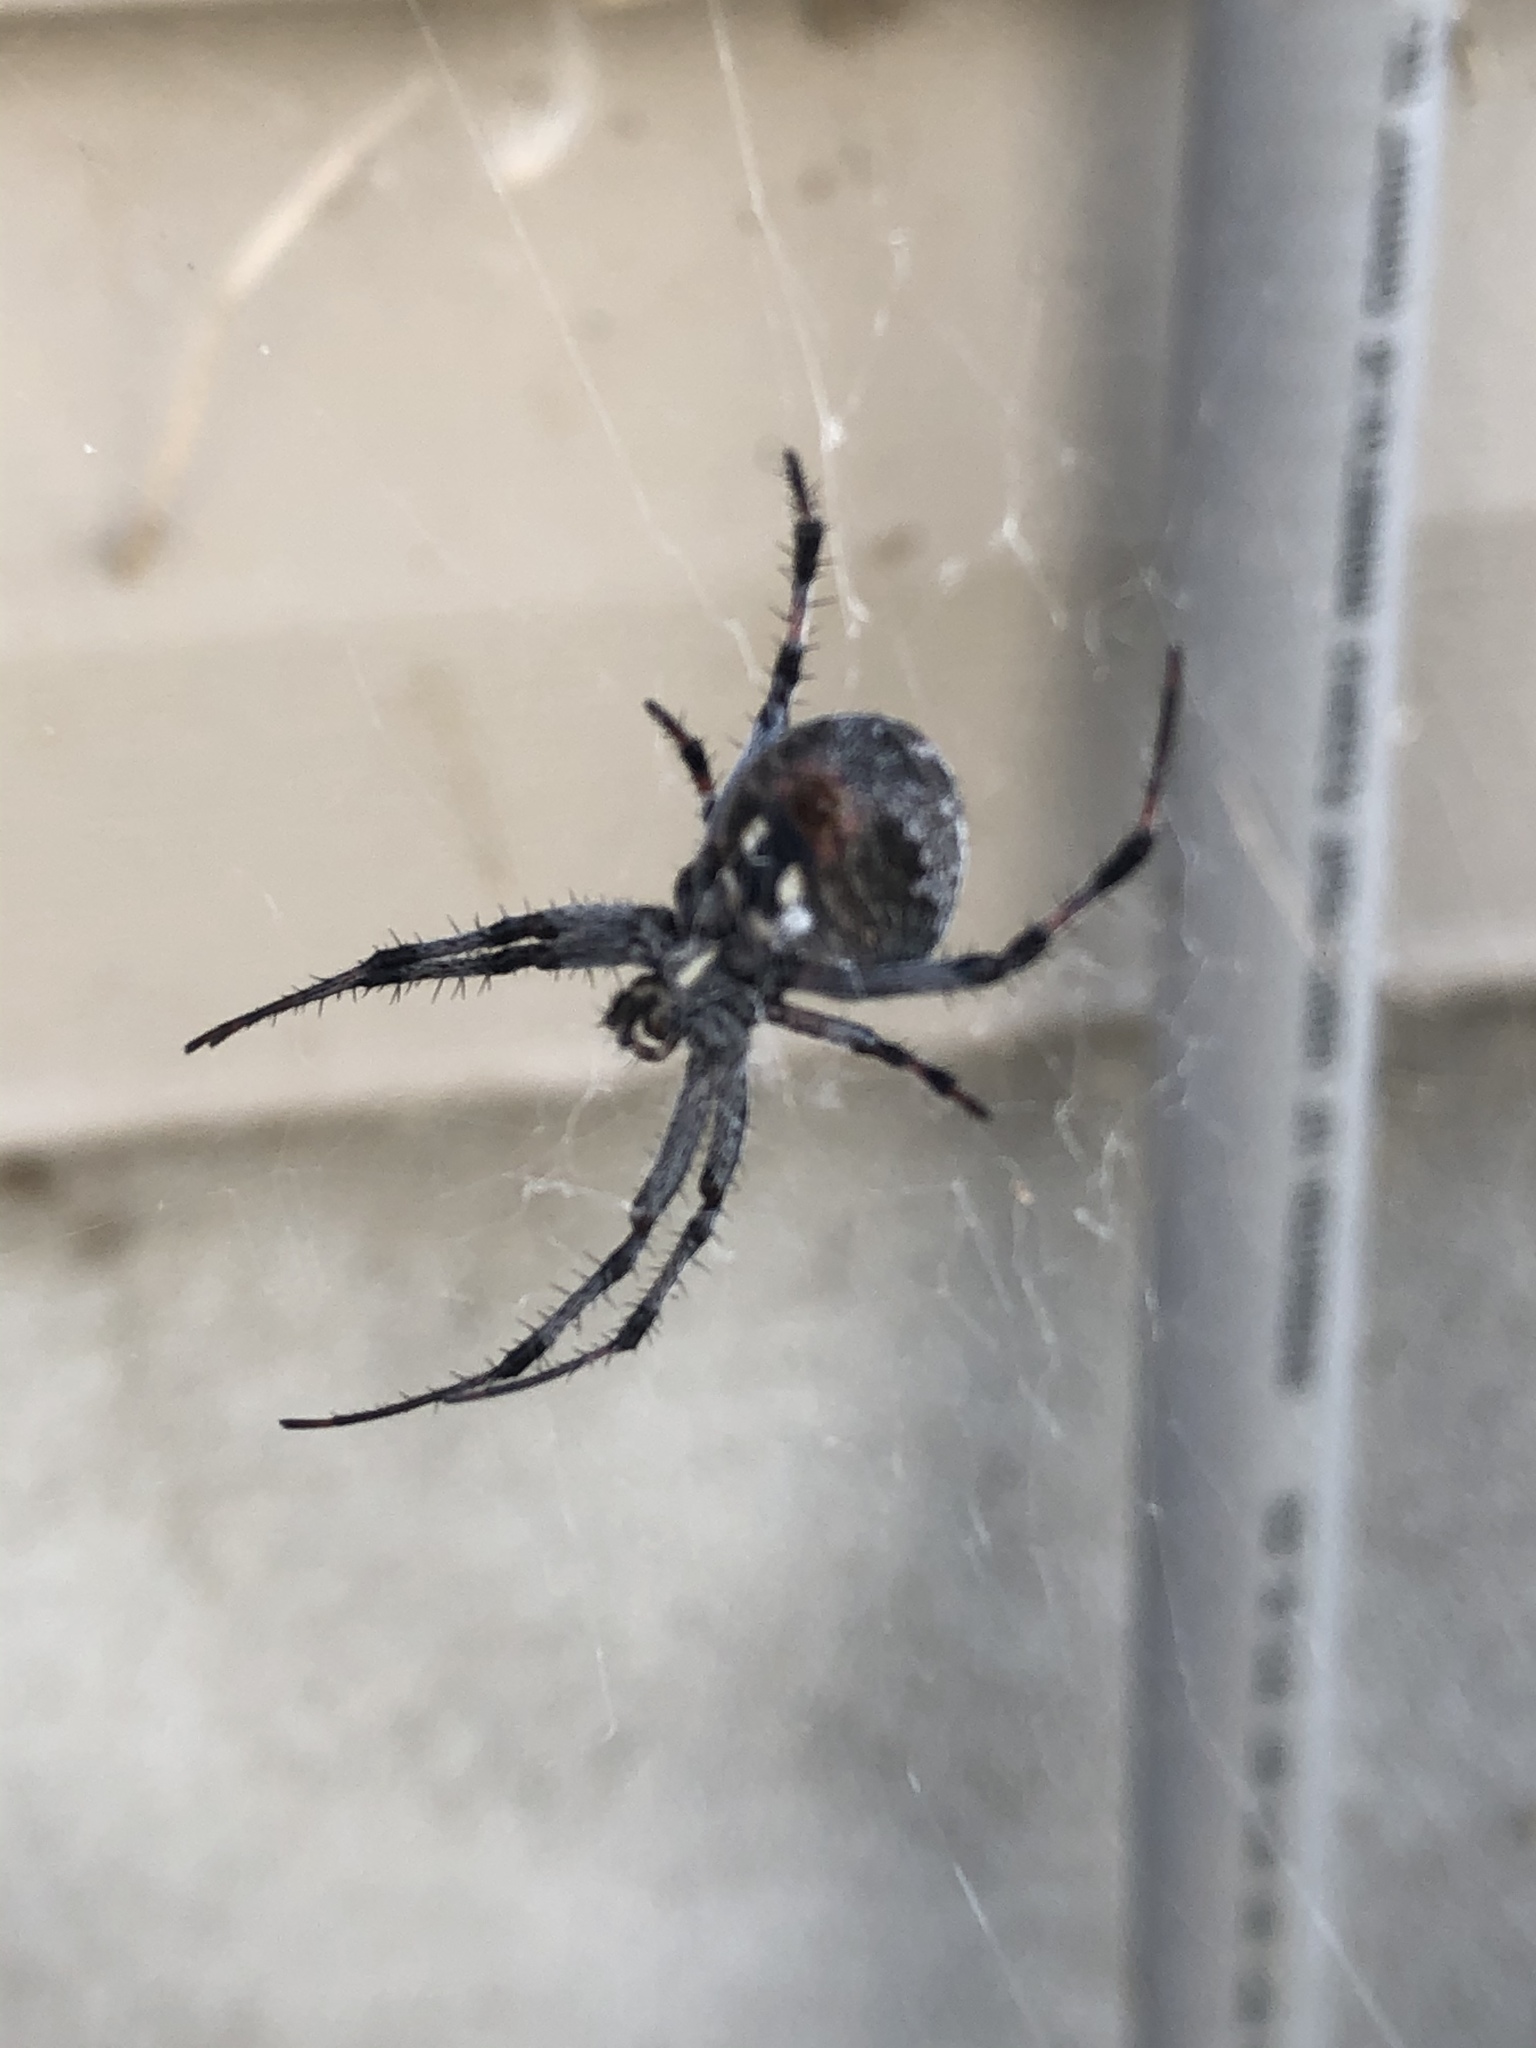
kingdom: Animalia
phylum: Arthropoda
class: Arachnida
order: Araneae
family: Araneidae
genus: Neoscona
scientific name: Neoscona oaxacensis
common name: Orb weavers
